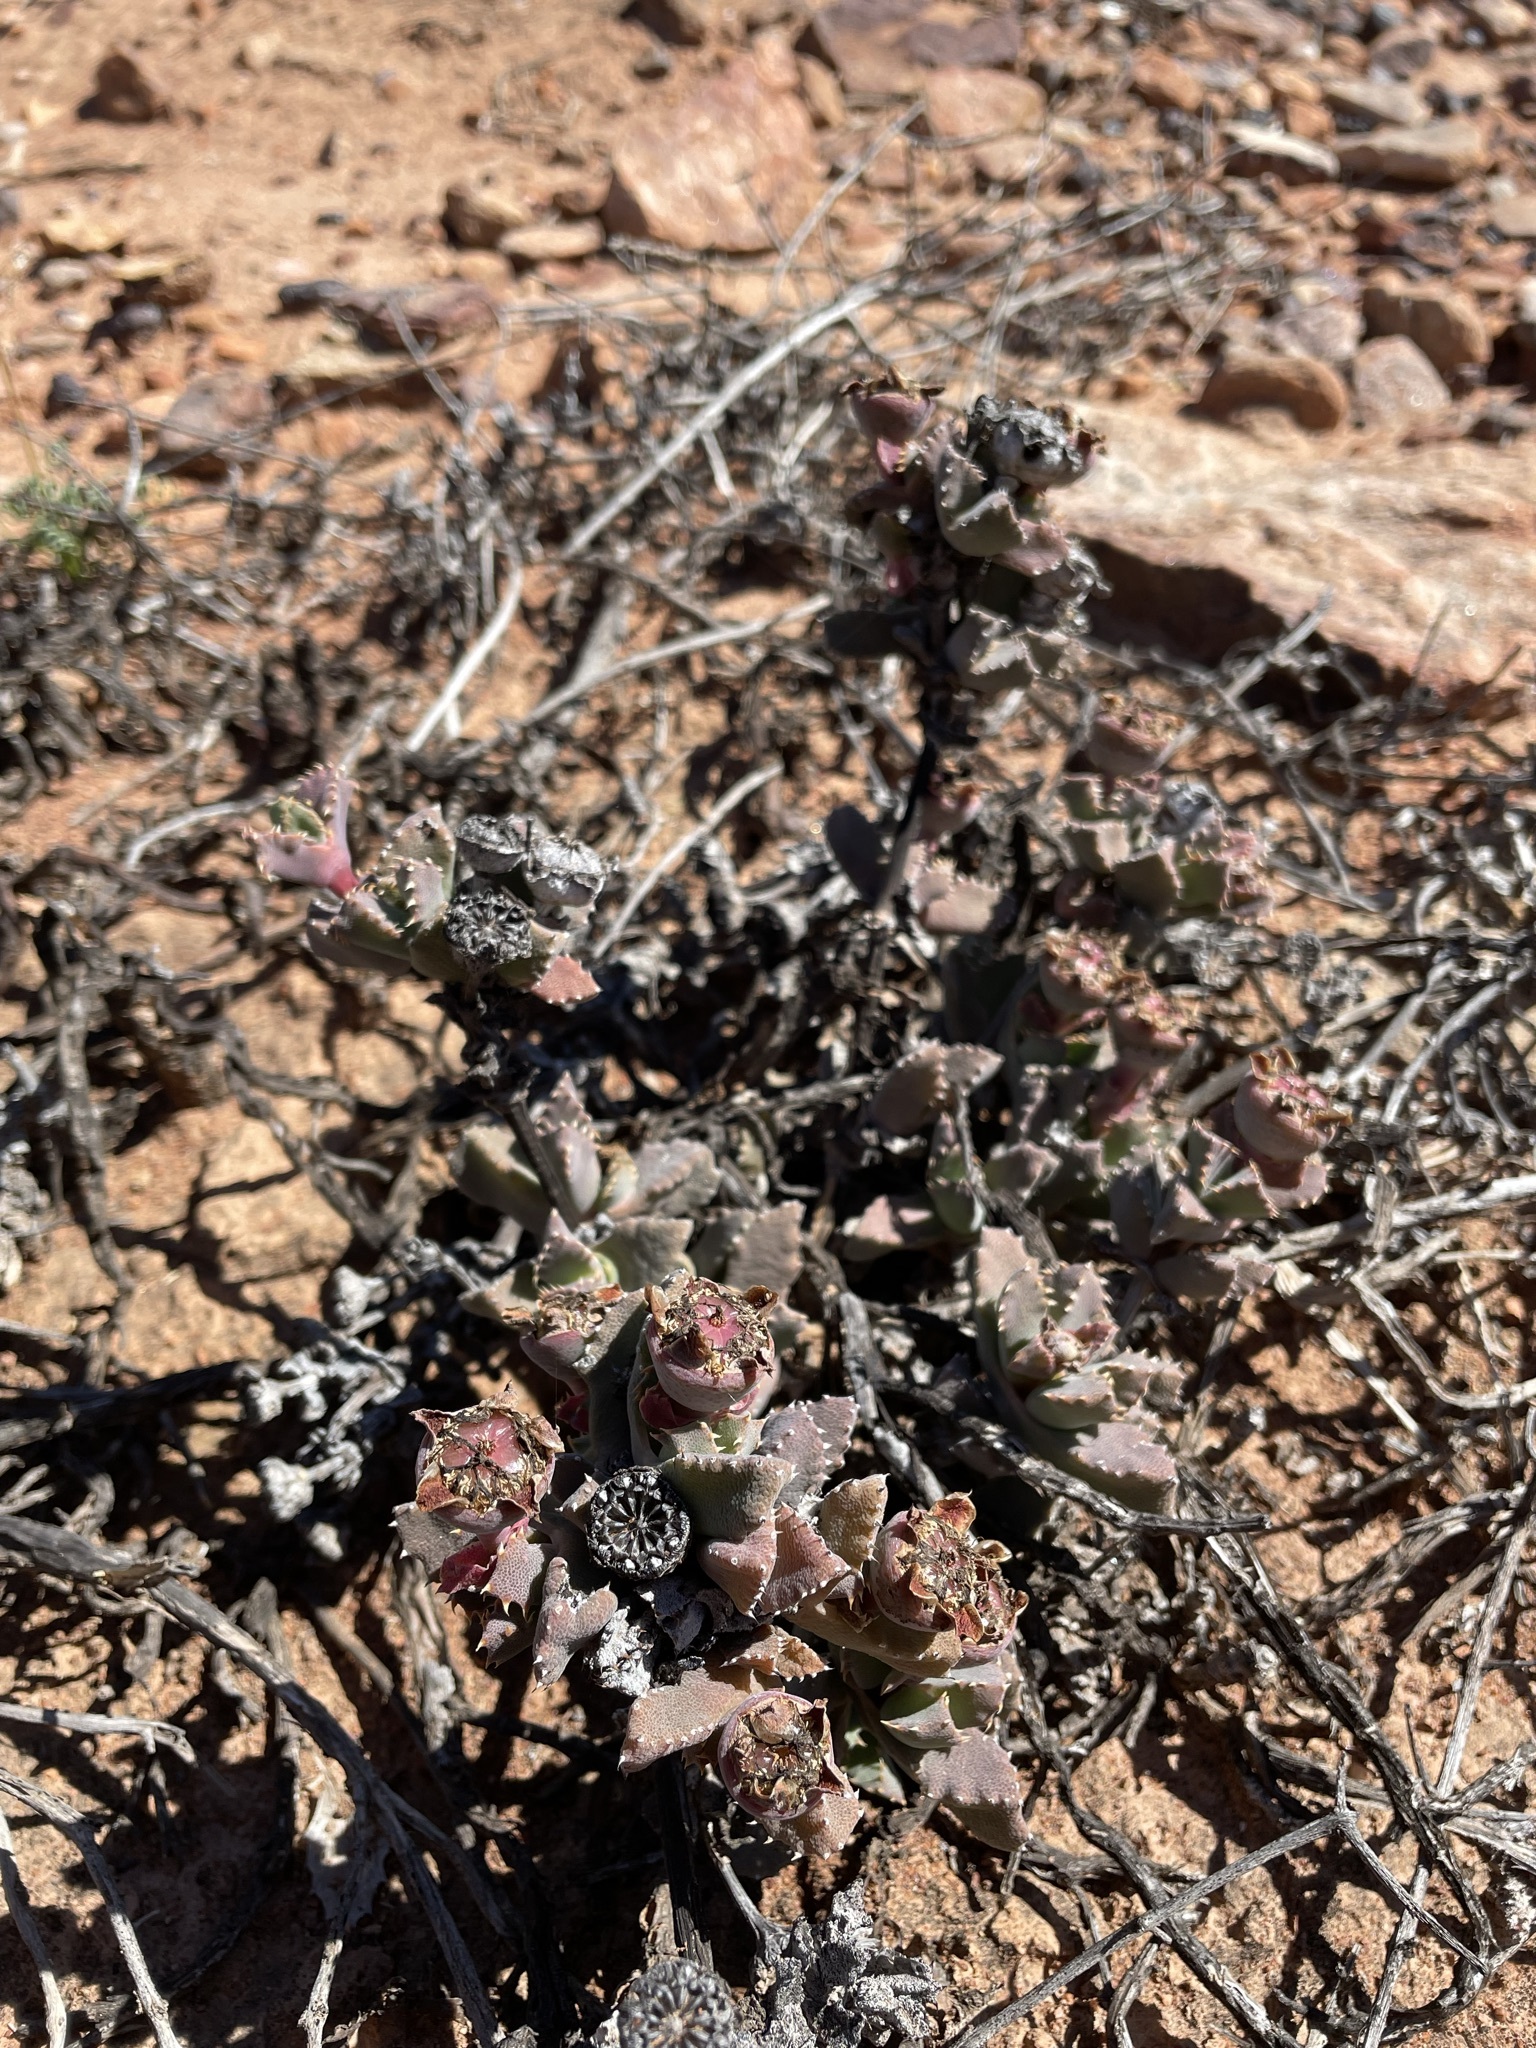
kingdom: Plantae
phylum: Tracheophyta
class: Magnoliopsida
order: Caryophyllales
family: Aizoaceae
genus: Cheiridopsis
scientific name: Cheiridopsis spiculata
